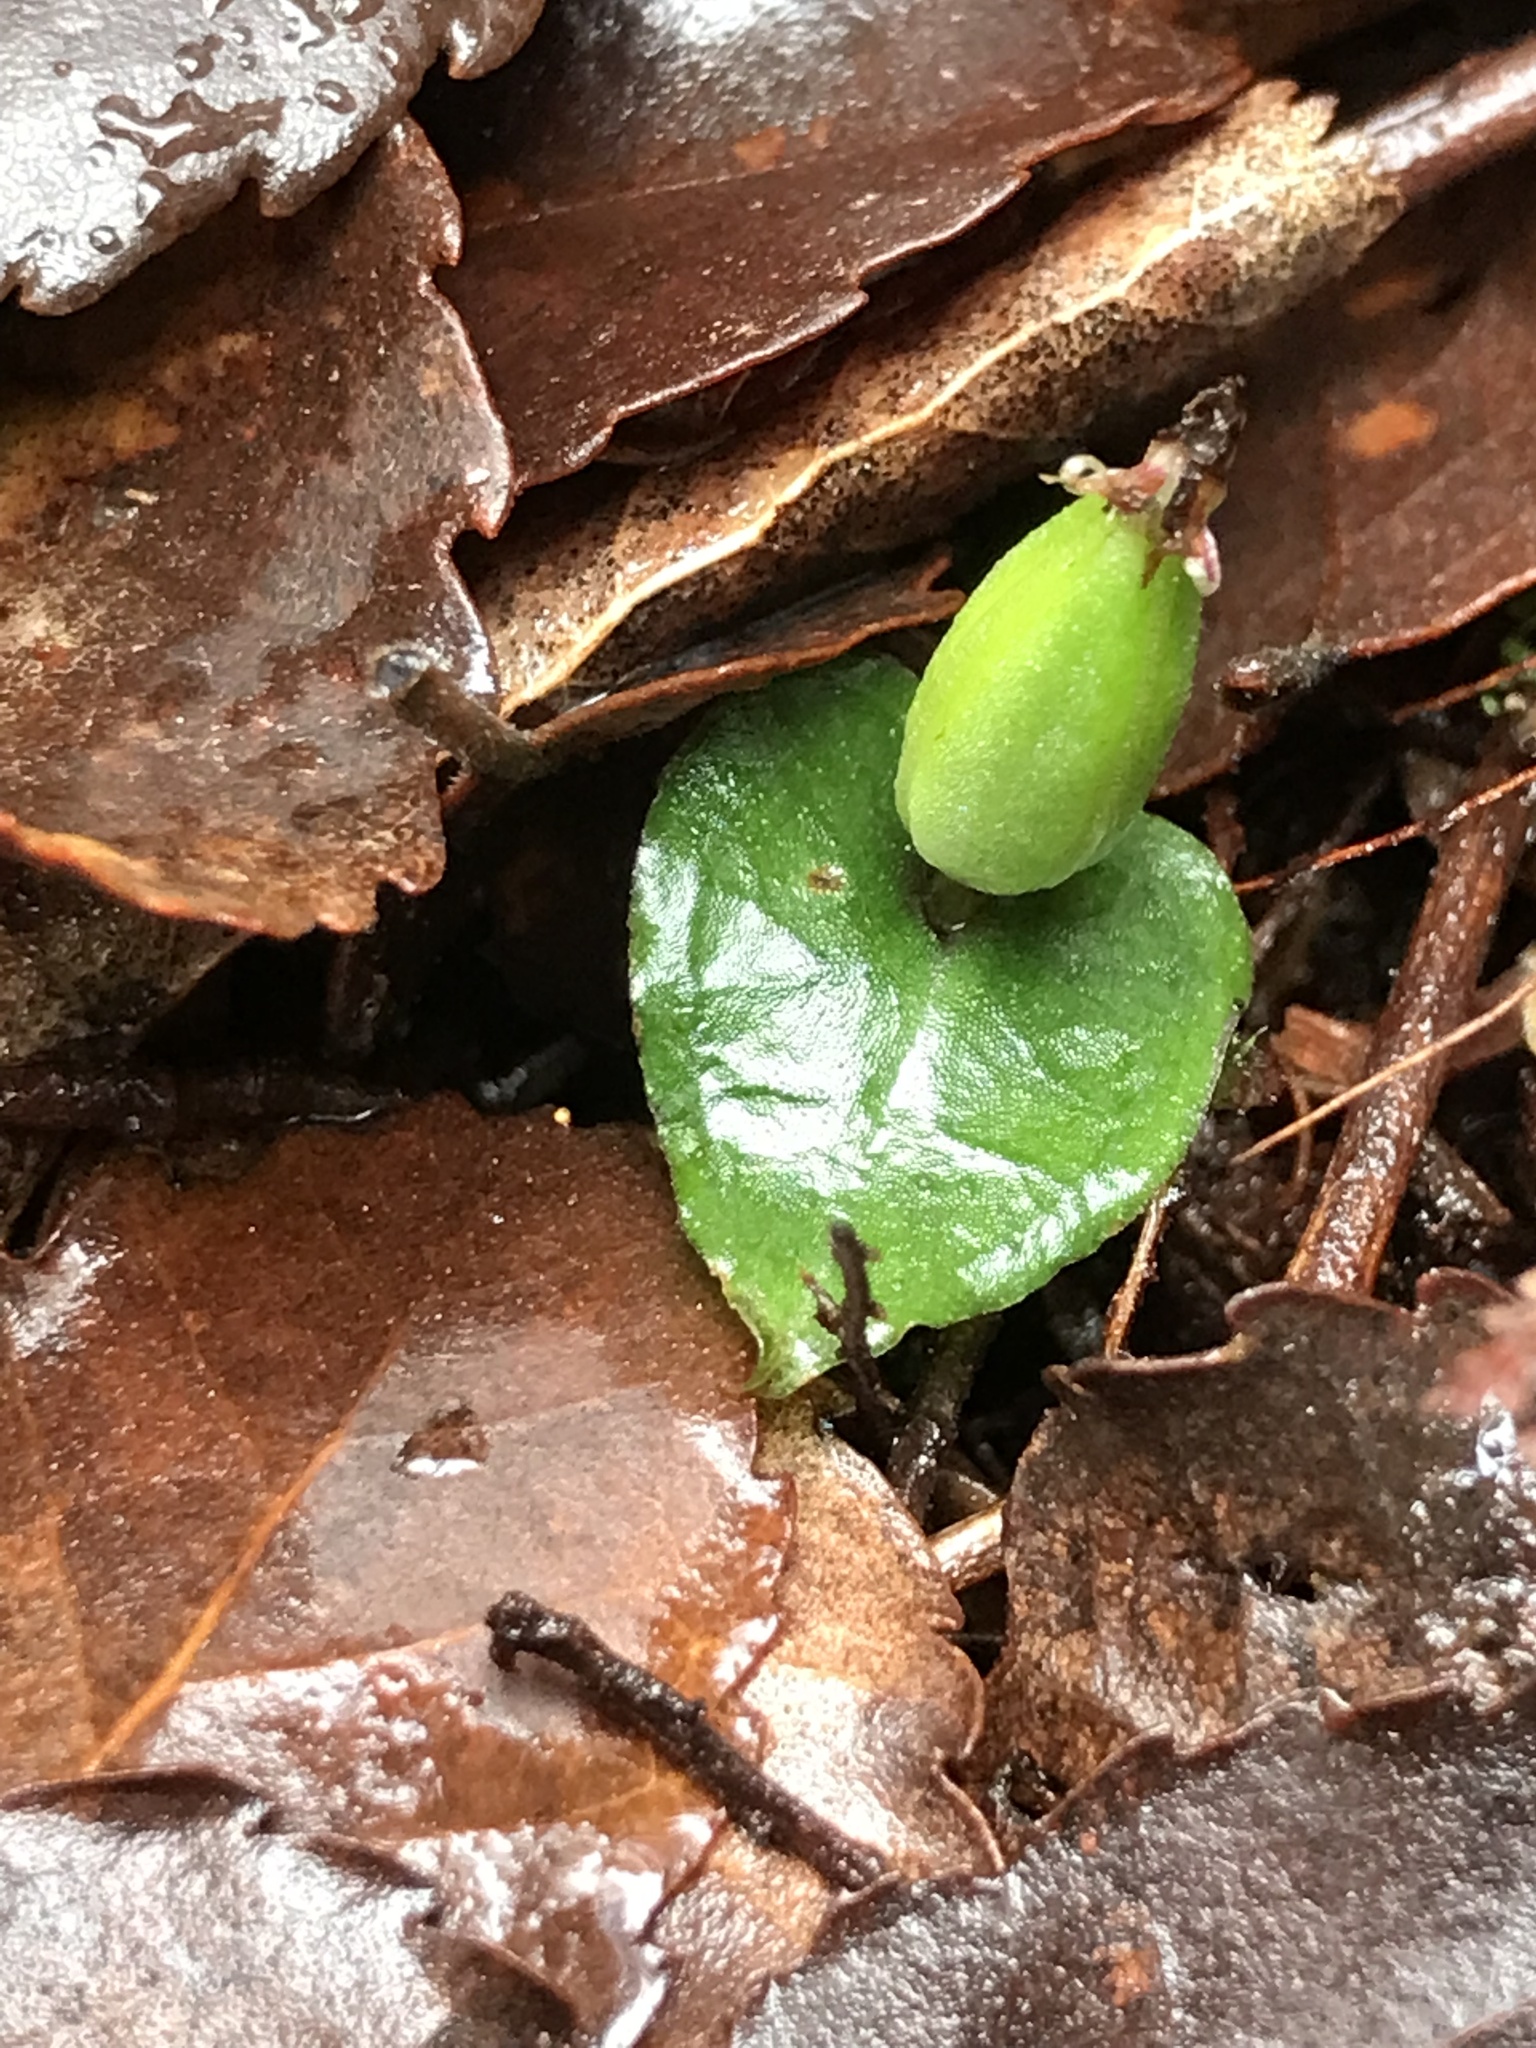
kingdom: Plantae
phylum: Tracheophyta
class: Liliopsida
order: Asparagales
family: Orchidaceae
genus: Corybas
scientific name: Corybas cheesemanii
